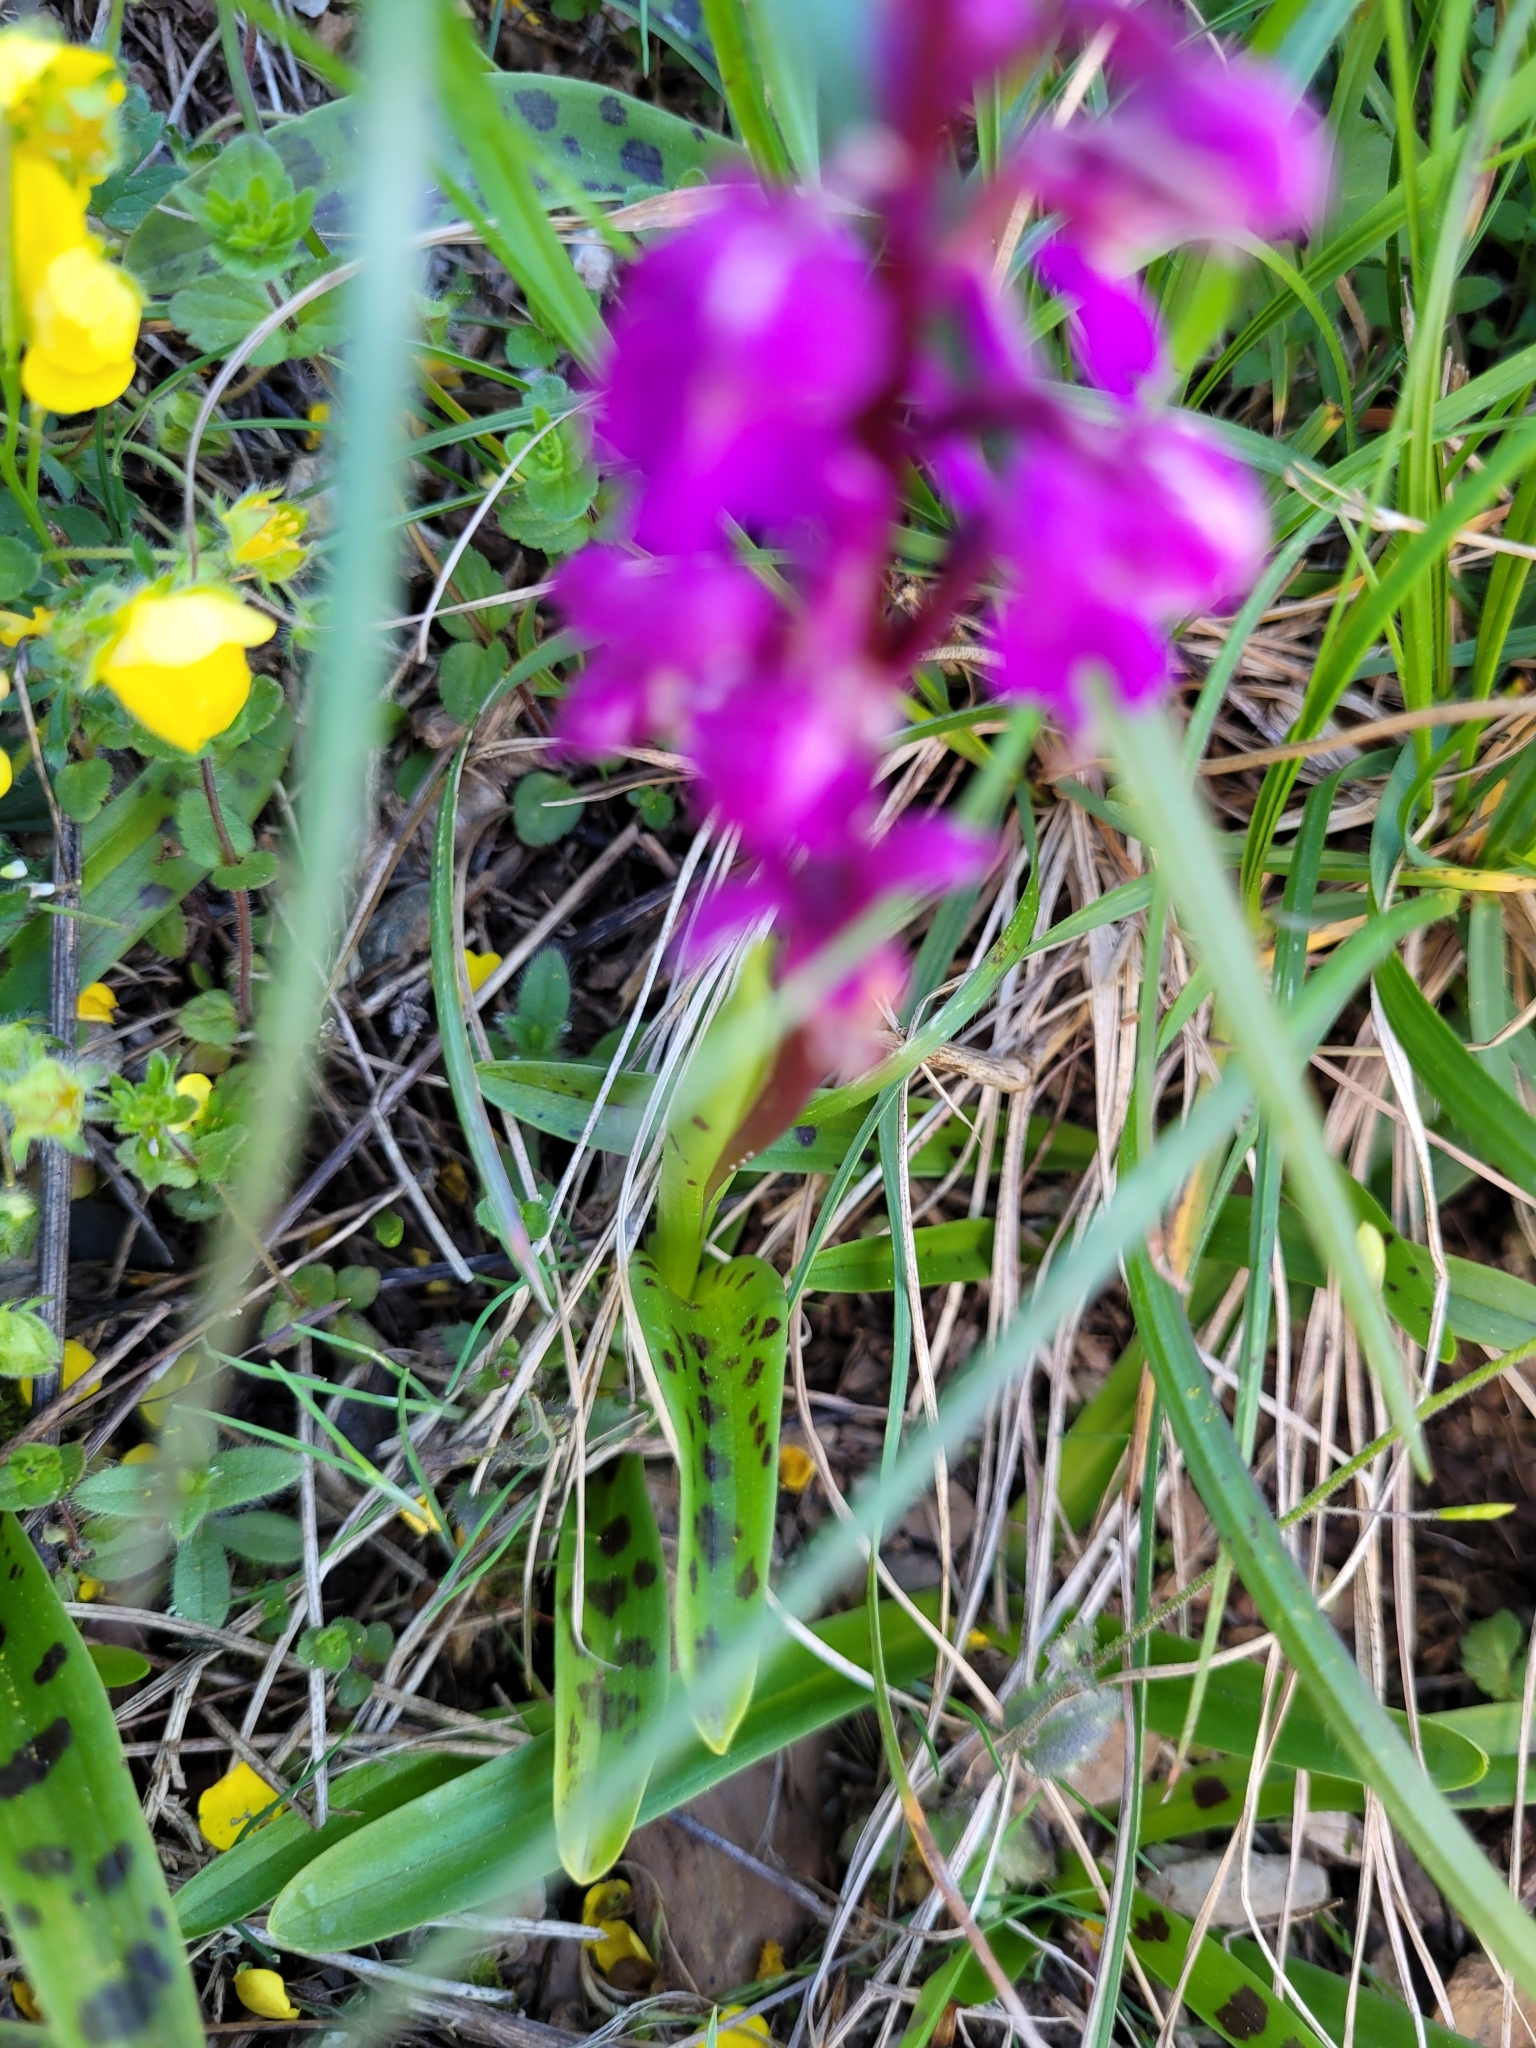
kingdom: Plantae
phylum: Tracheophyta
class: Liliopsida
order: Asparagales
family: Orchidaceae
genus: Orchis
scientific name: Orchis mascula
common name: Early-purple orchid
